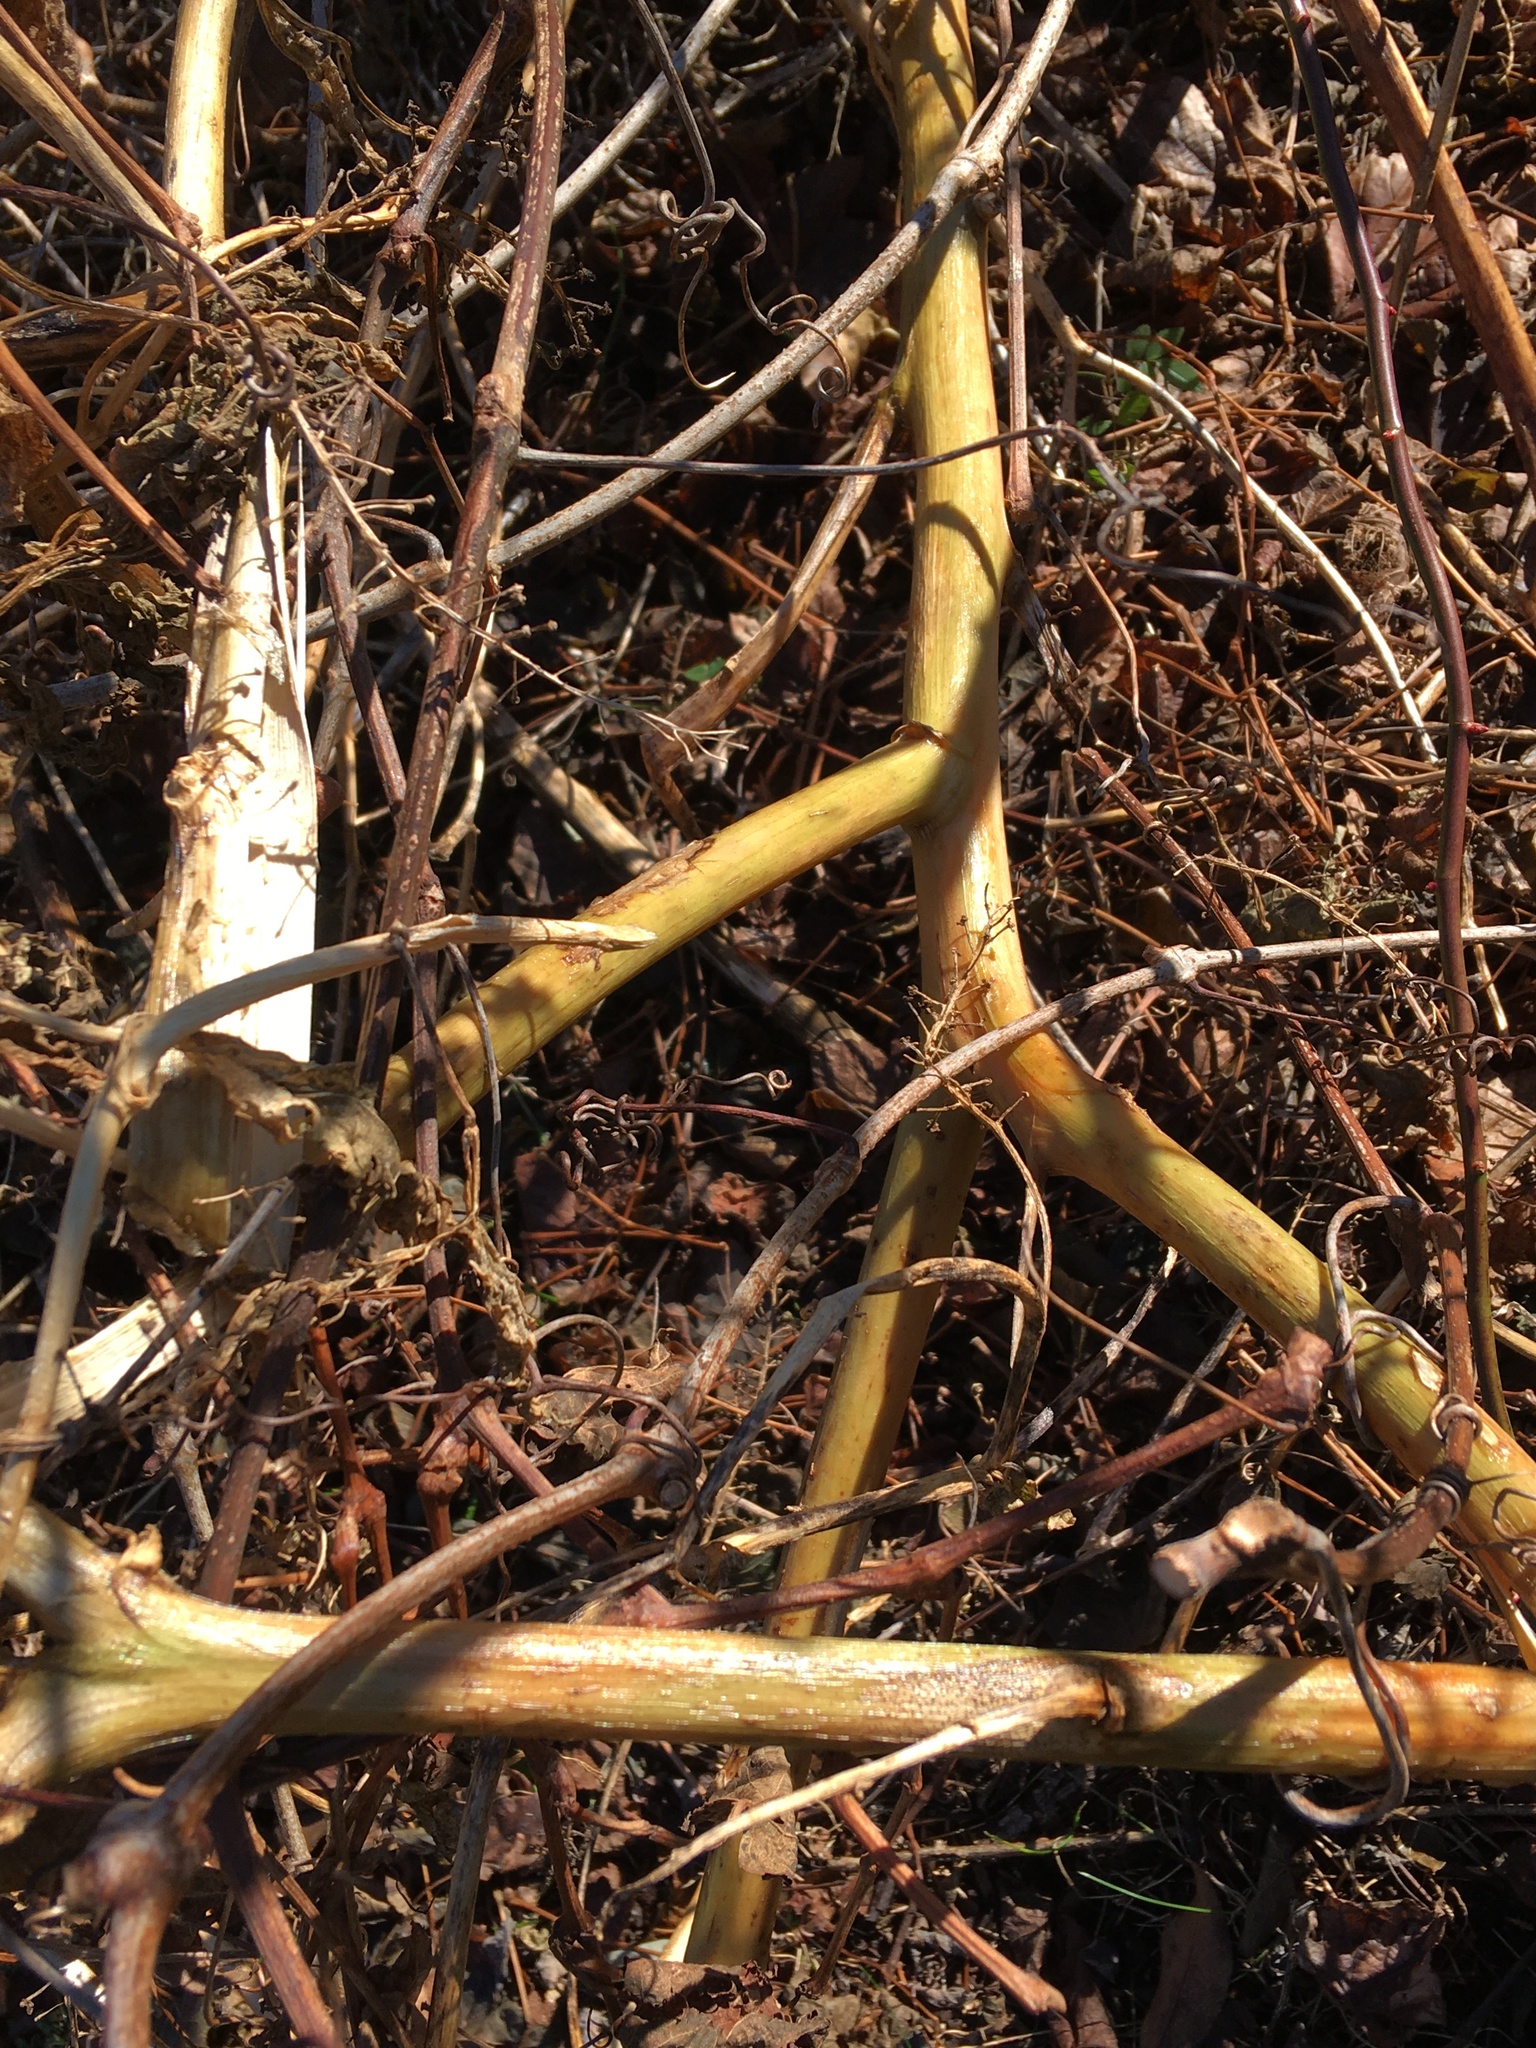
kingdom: Plantae
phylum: Tracheophyta
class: Magnoliopsida
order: Caryophyllales
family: Phytolaccaceae
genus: Phytolacca
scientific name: Phytolacca americana
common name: American pokeweed
